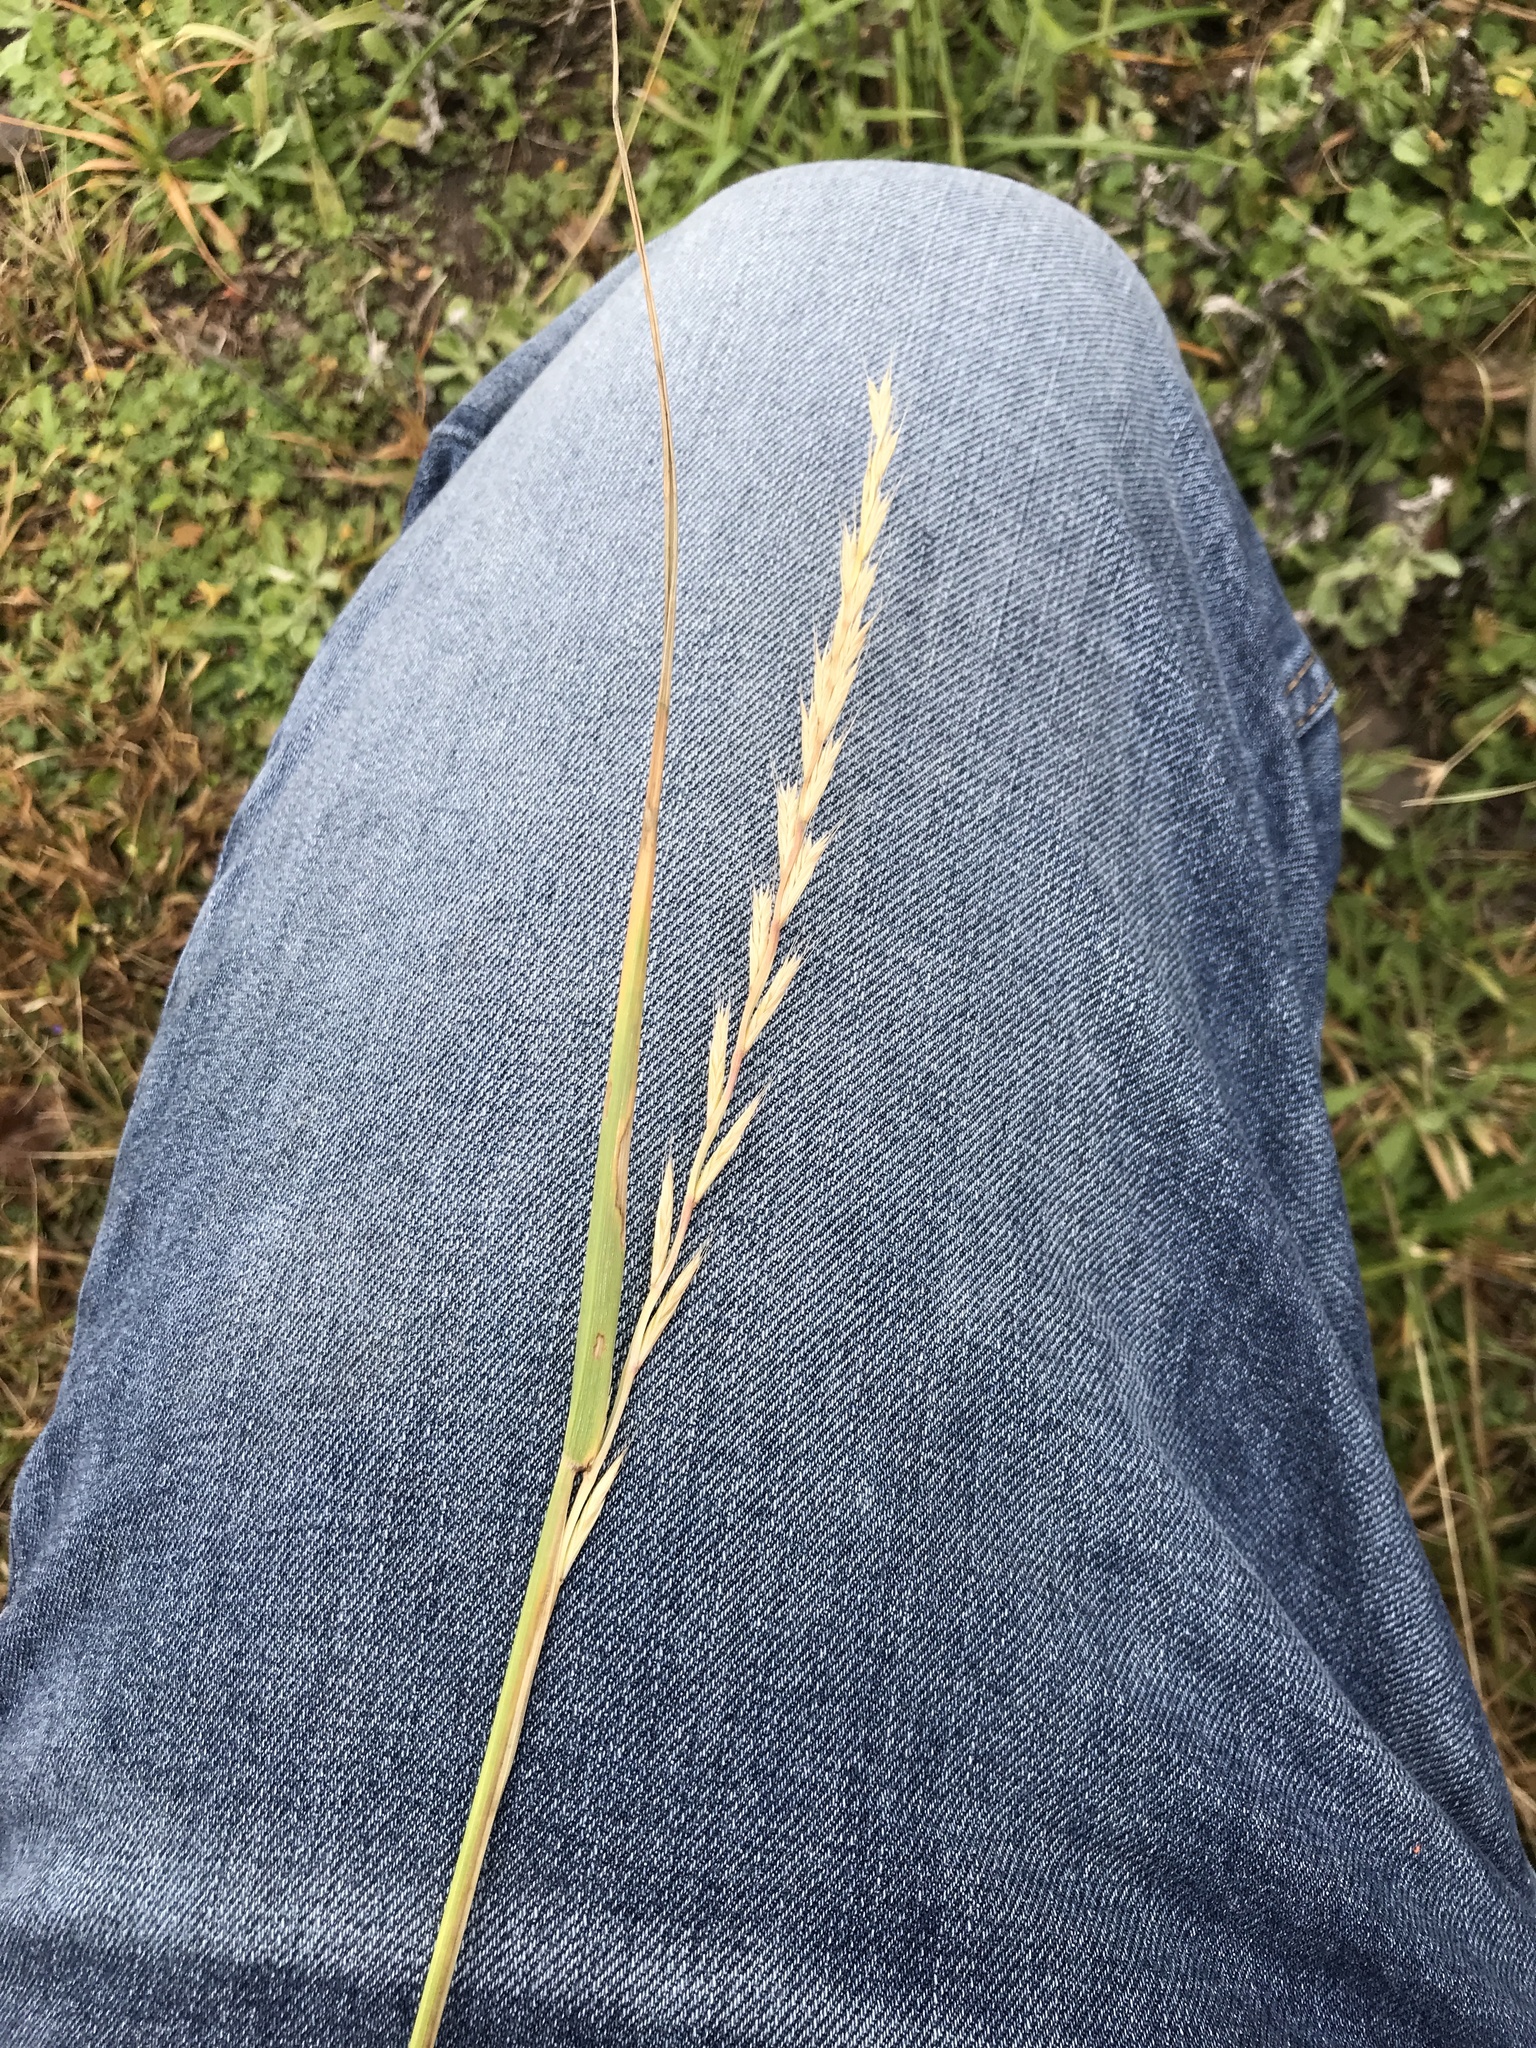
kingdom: Plantae
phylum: Tracheophyta
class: Liliopsida
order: Poales
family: Poaceae
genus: Lolium
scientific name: Lolium perenne
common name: Perennial ryegrass
